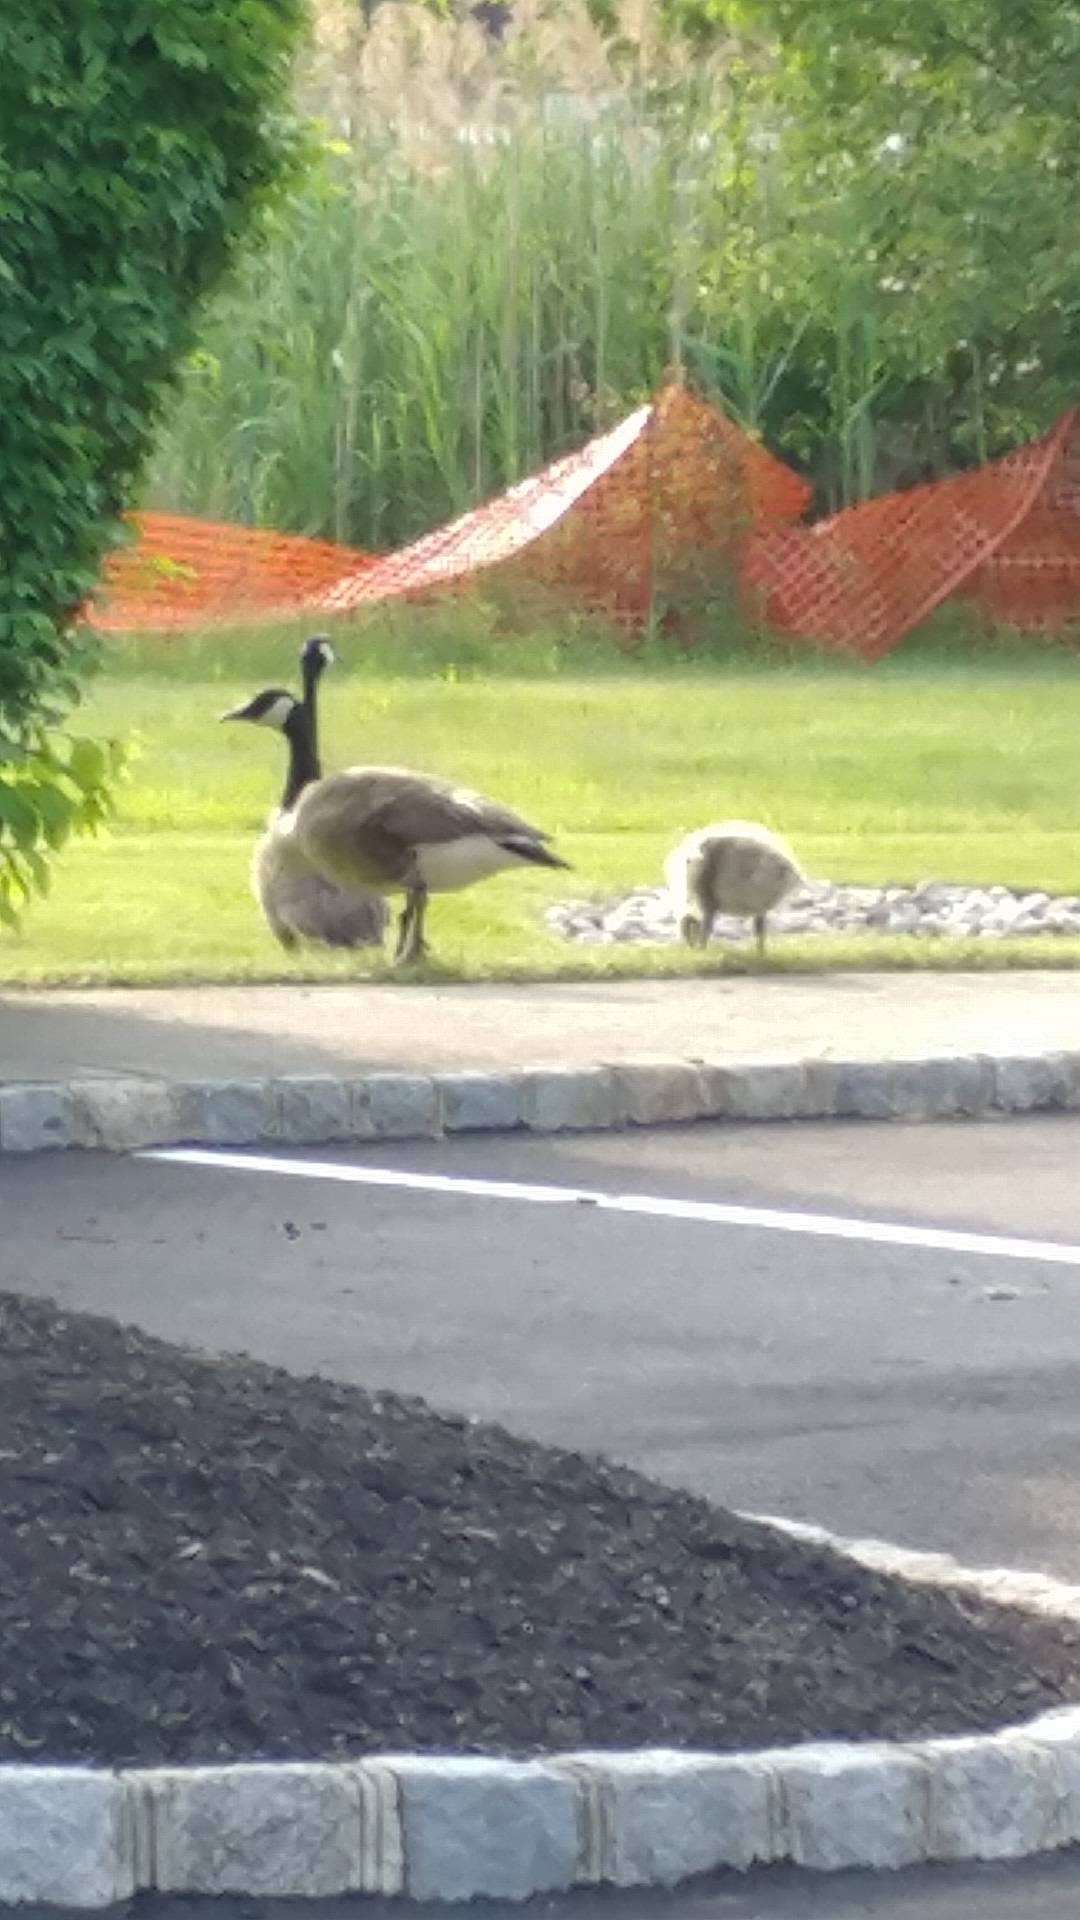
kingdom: Animalia
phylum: Chordata
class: Aves
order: Anseriformes
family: Anatidae
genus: Branta
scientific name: Branta canadensis
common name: Canada goose
